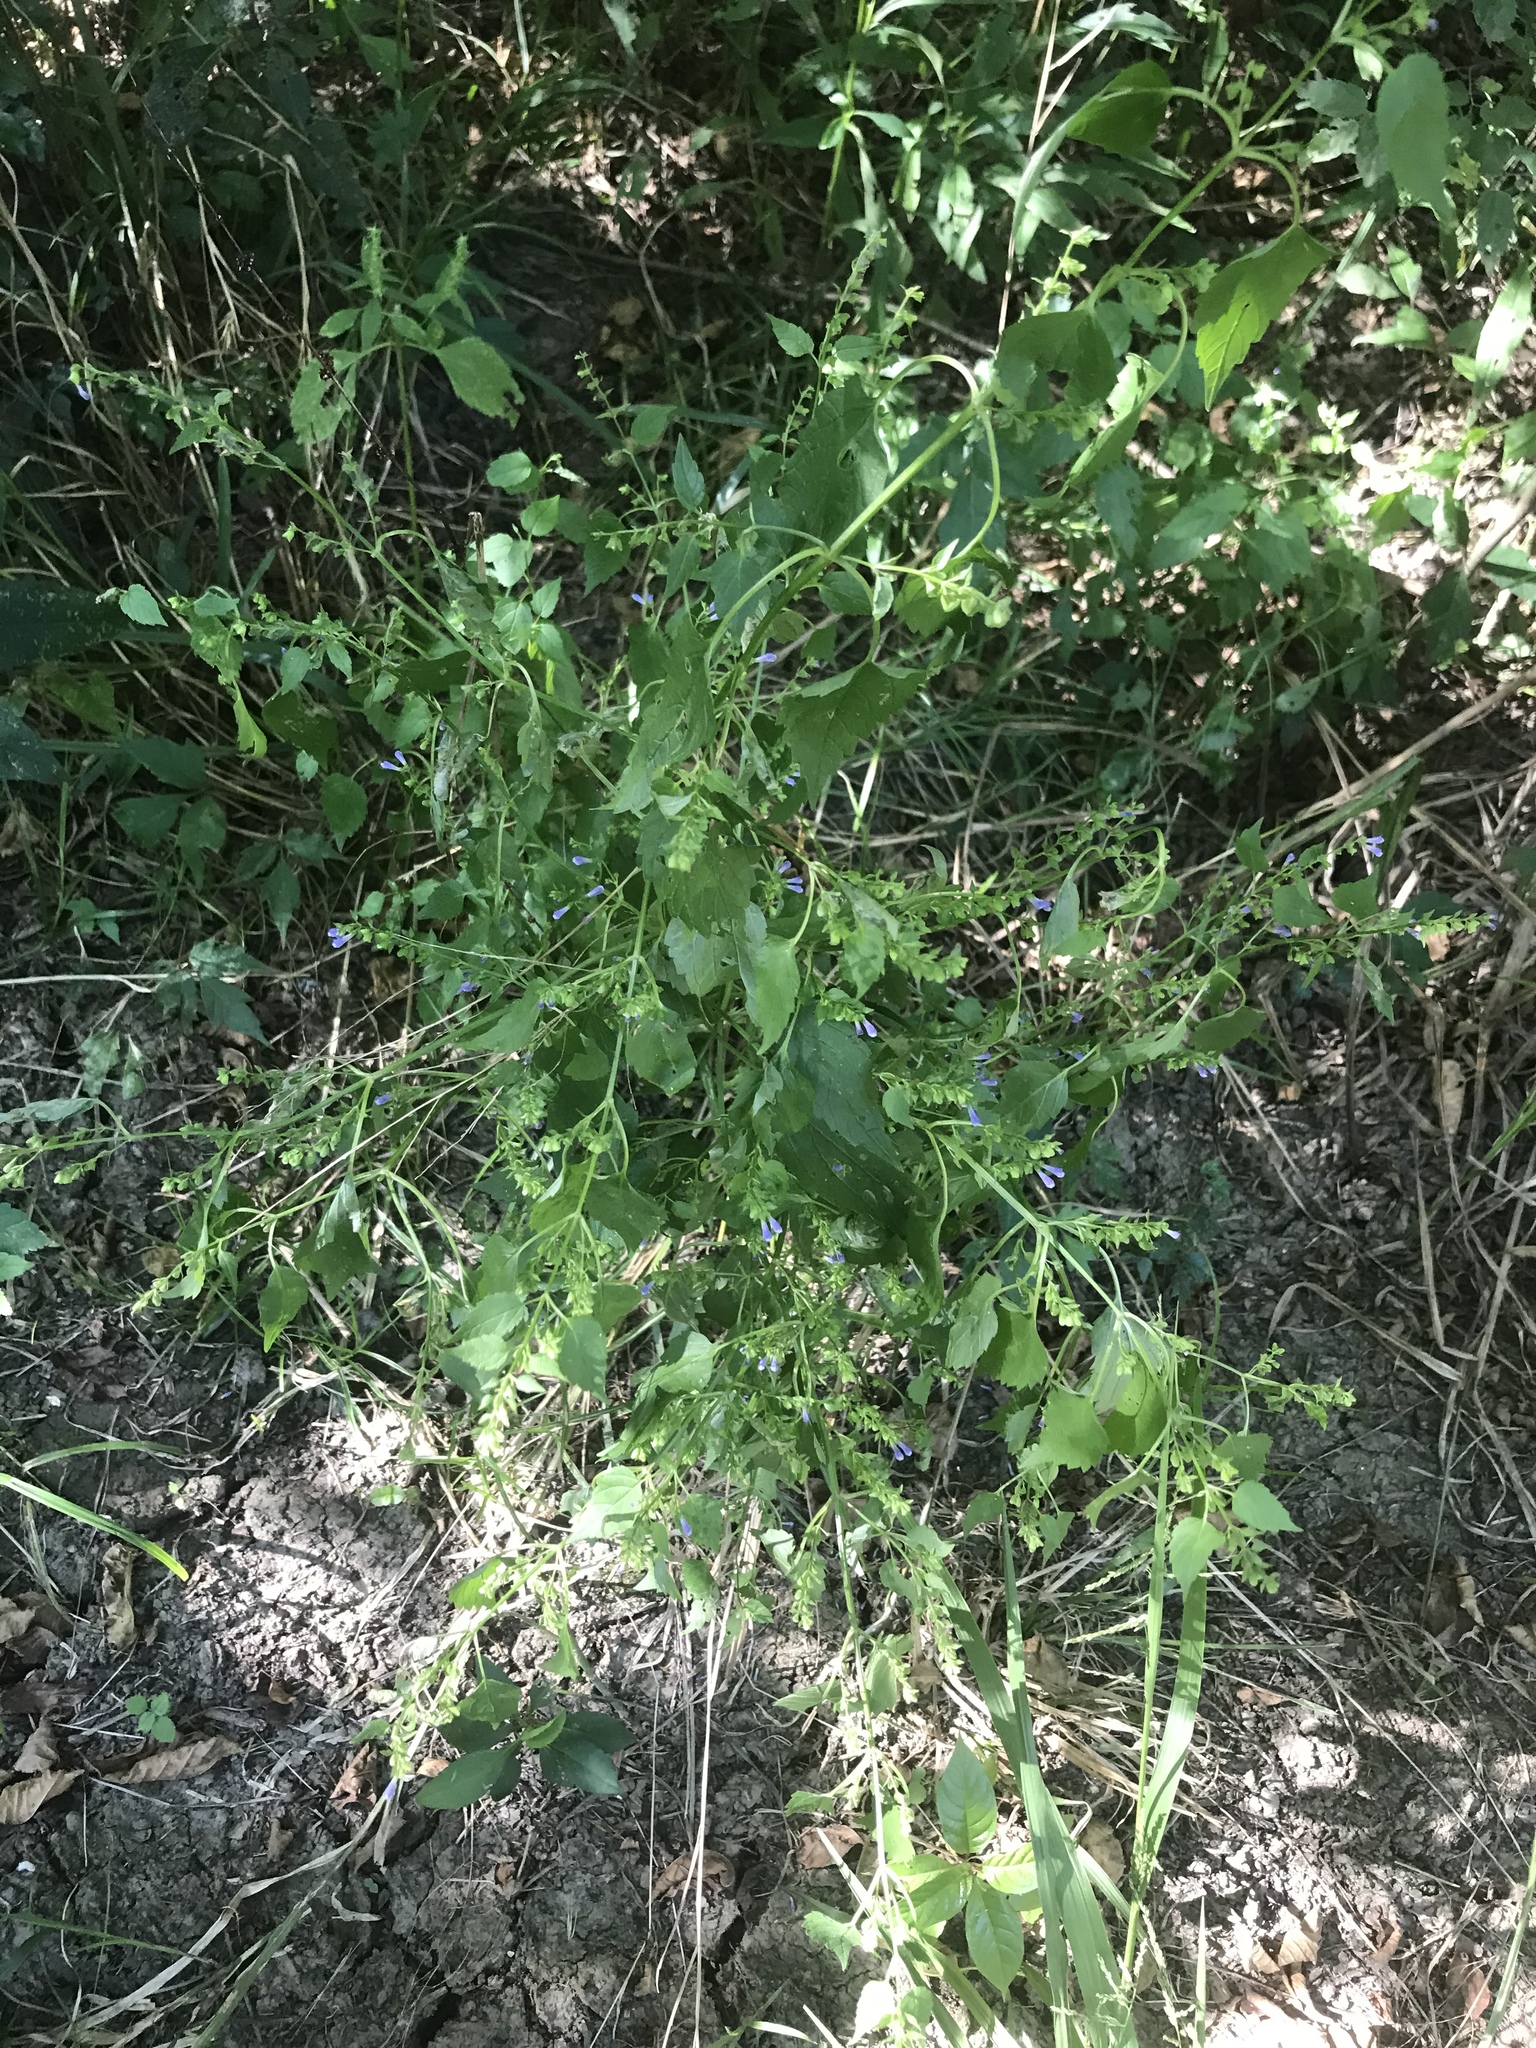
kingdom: Plantae
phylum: Tracheophyta
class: Magnoliopsida
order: Lamiales
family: Lamiaceae
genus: Scutellaria
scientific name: Scutellaria lateriflora
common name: Blue skullcap
